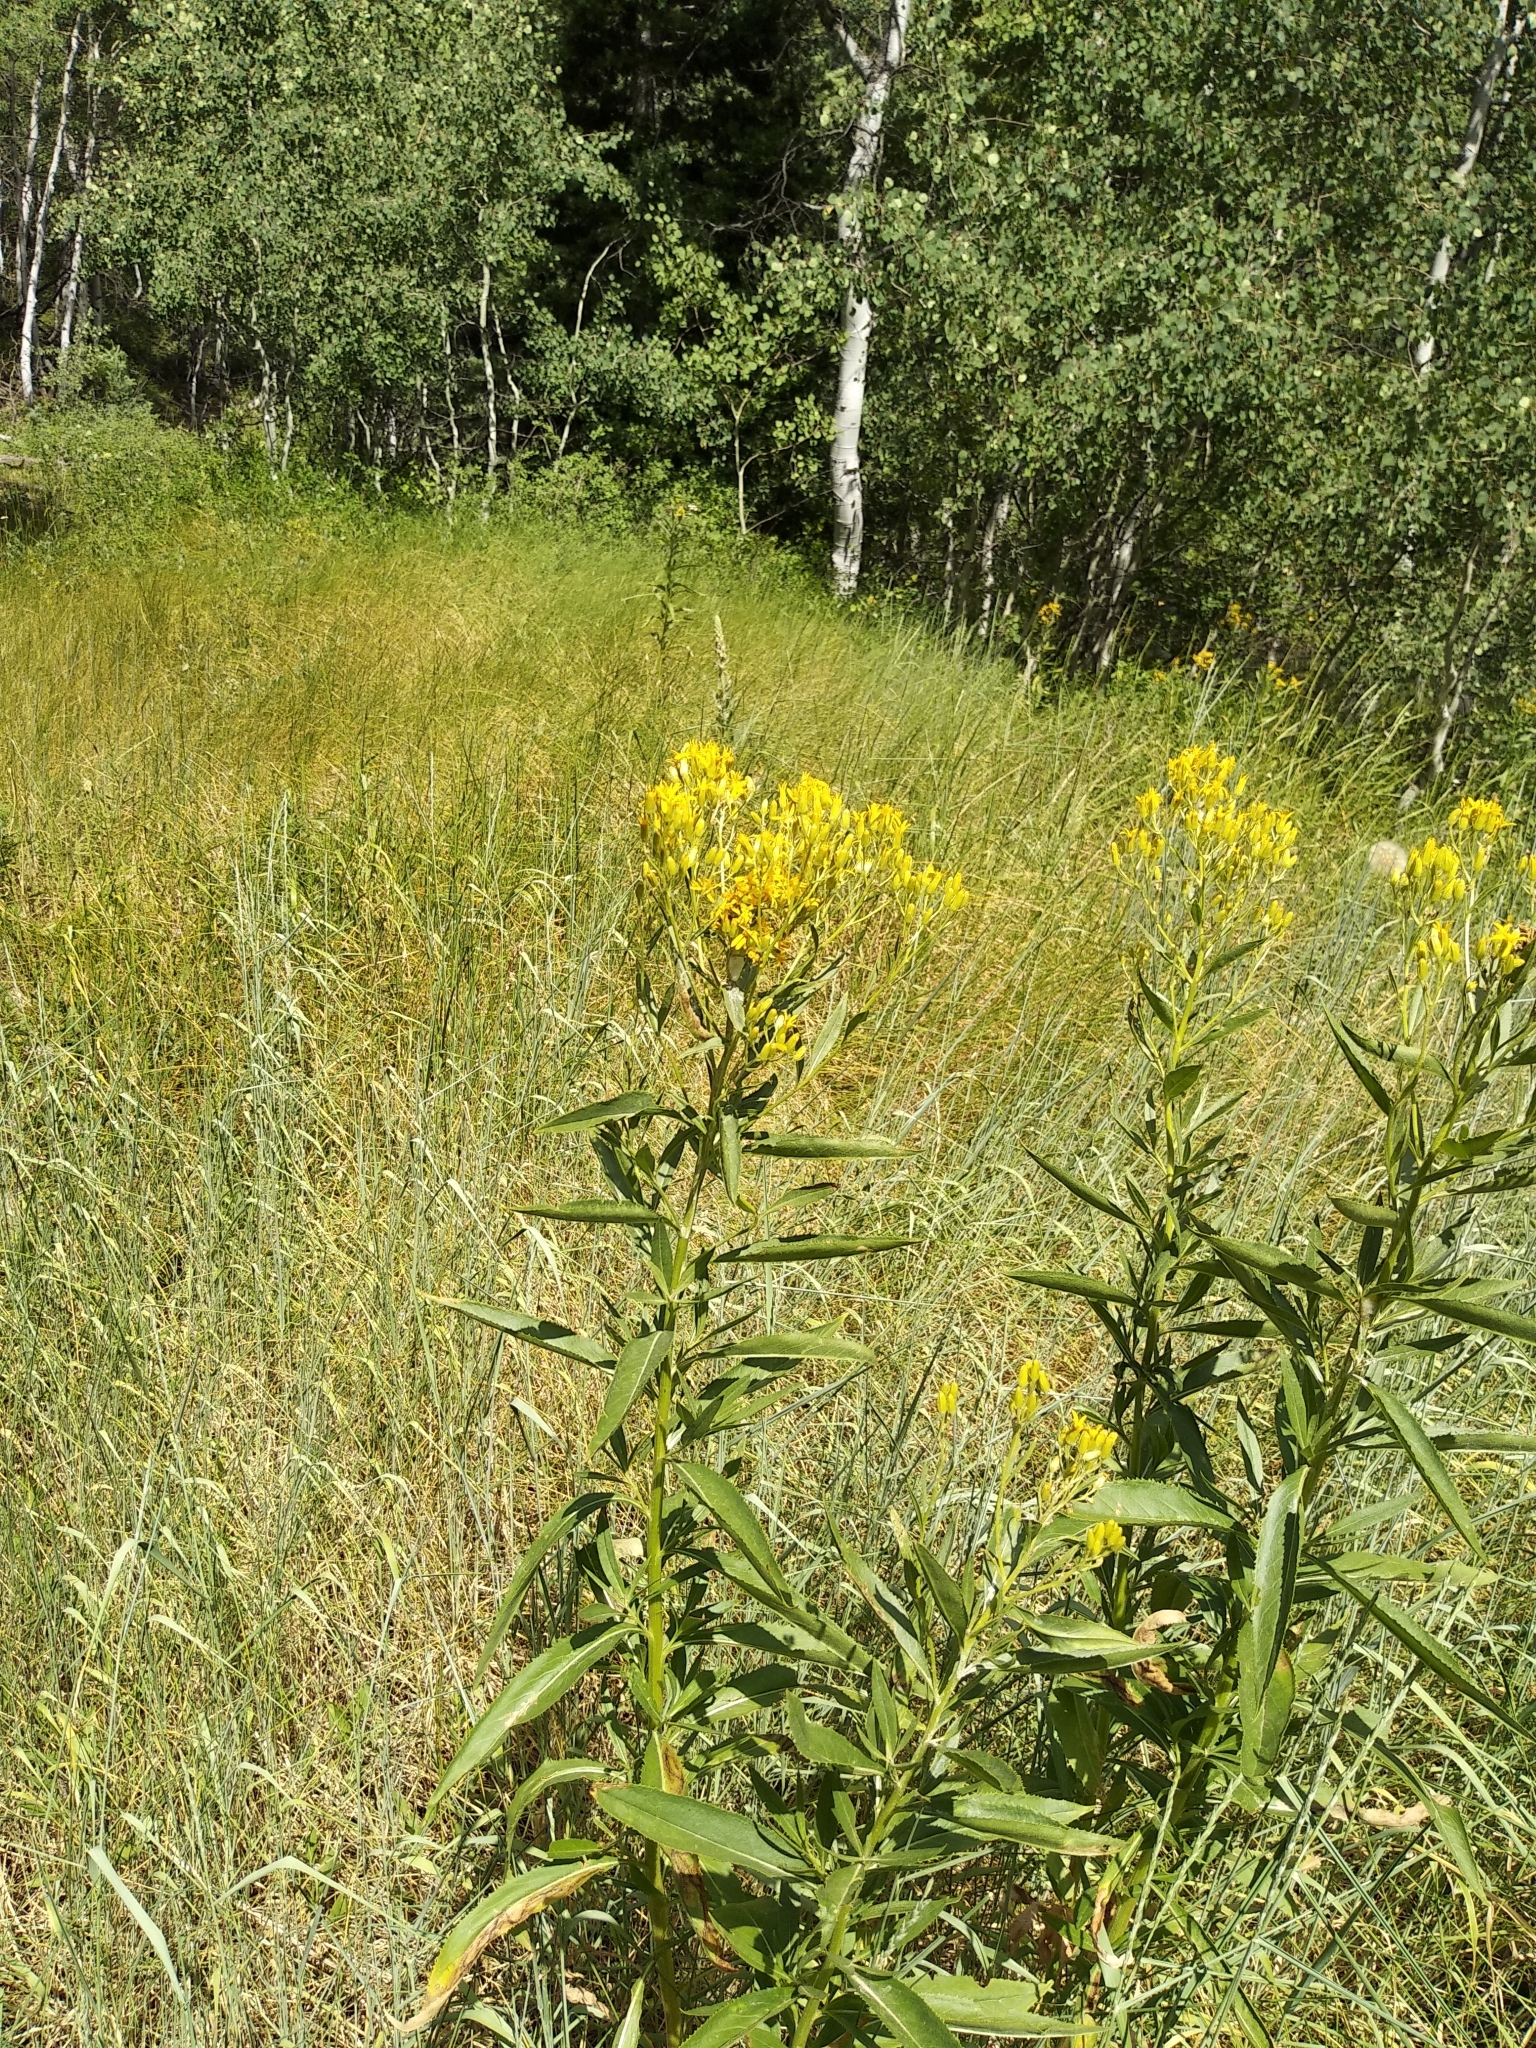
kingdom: Plantae
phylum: Tracheophyta
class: Magnoliopsida
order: Asterales
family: Asteraceae
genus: Senecio
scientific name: Senecio serra
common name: Tall ragwort
